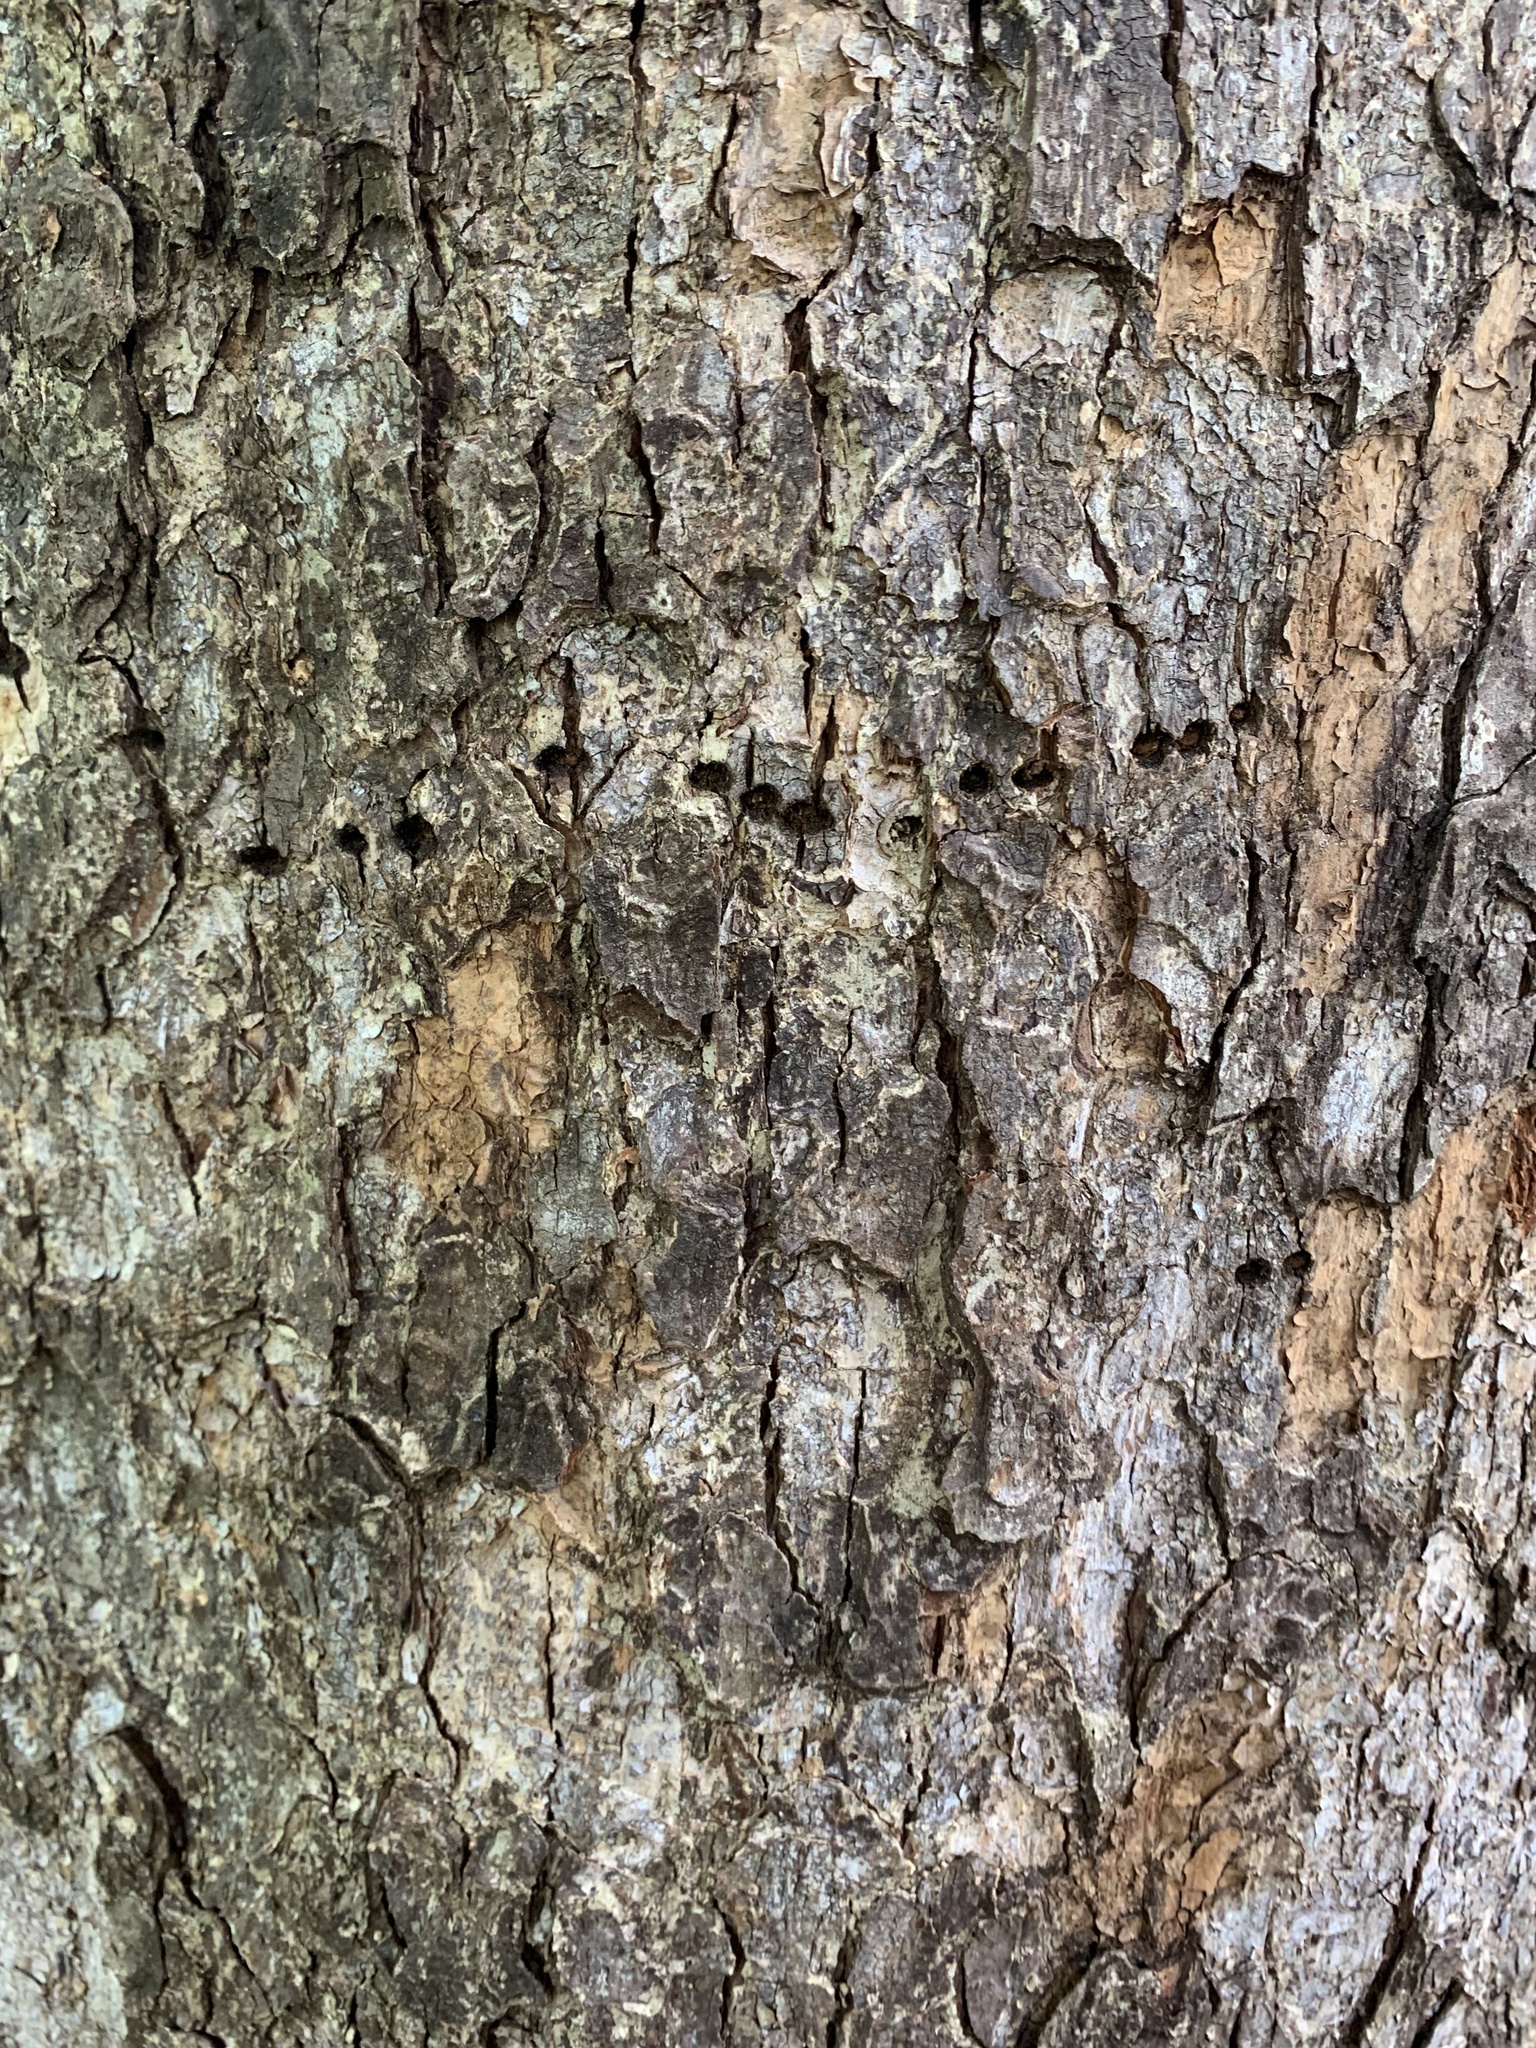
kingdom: Animalia
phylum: Chordata
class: Aves
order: Piciformes
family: Picidae
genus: Sphyrapicus
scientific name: Sphyrapicus varius
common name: Yellow-bellied sapsucker
